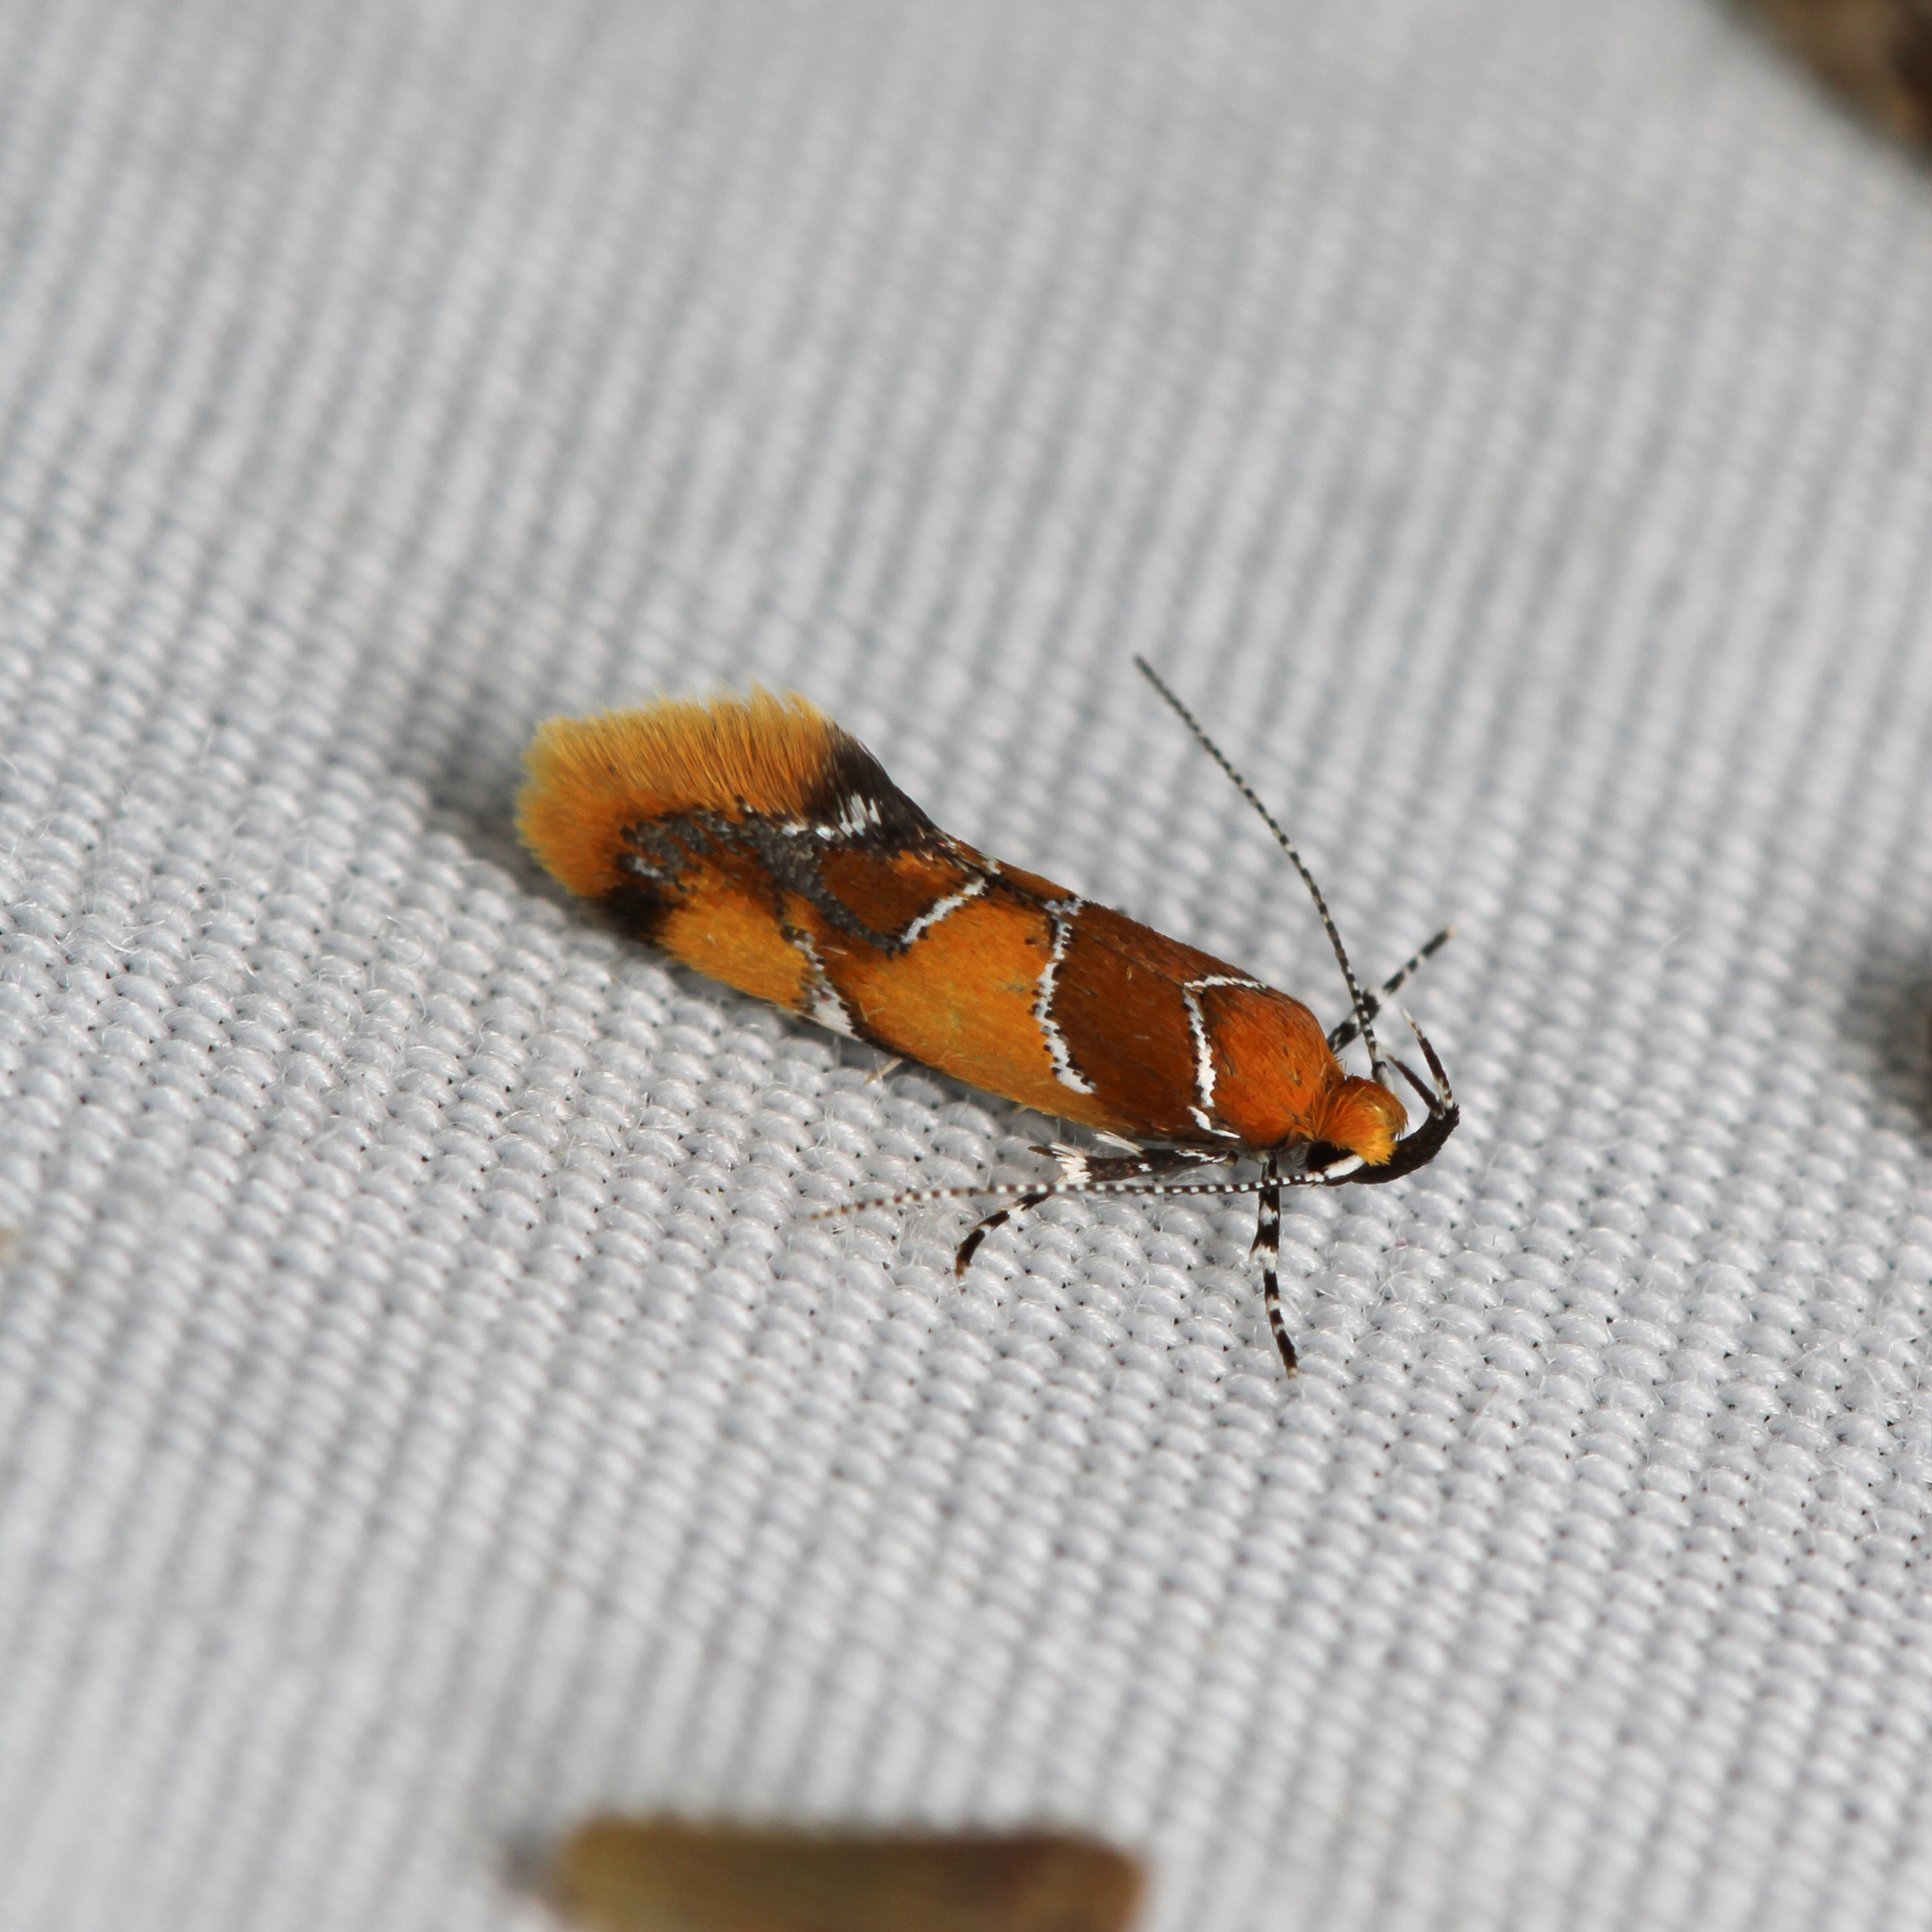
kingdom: Animalia
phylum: Arthropoda
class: Insecta
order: Lepidoptera
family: Oecophoridae
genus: Callima
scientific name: Callima argenticinctella
